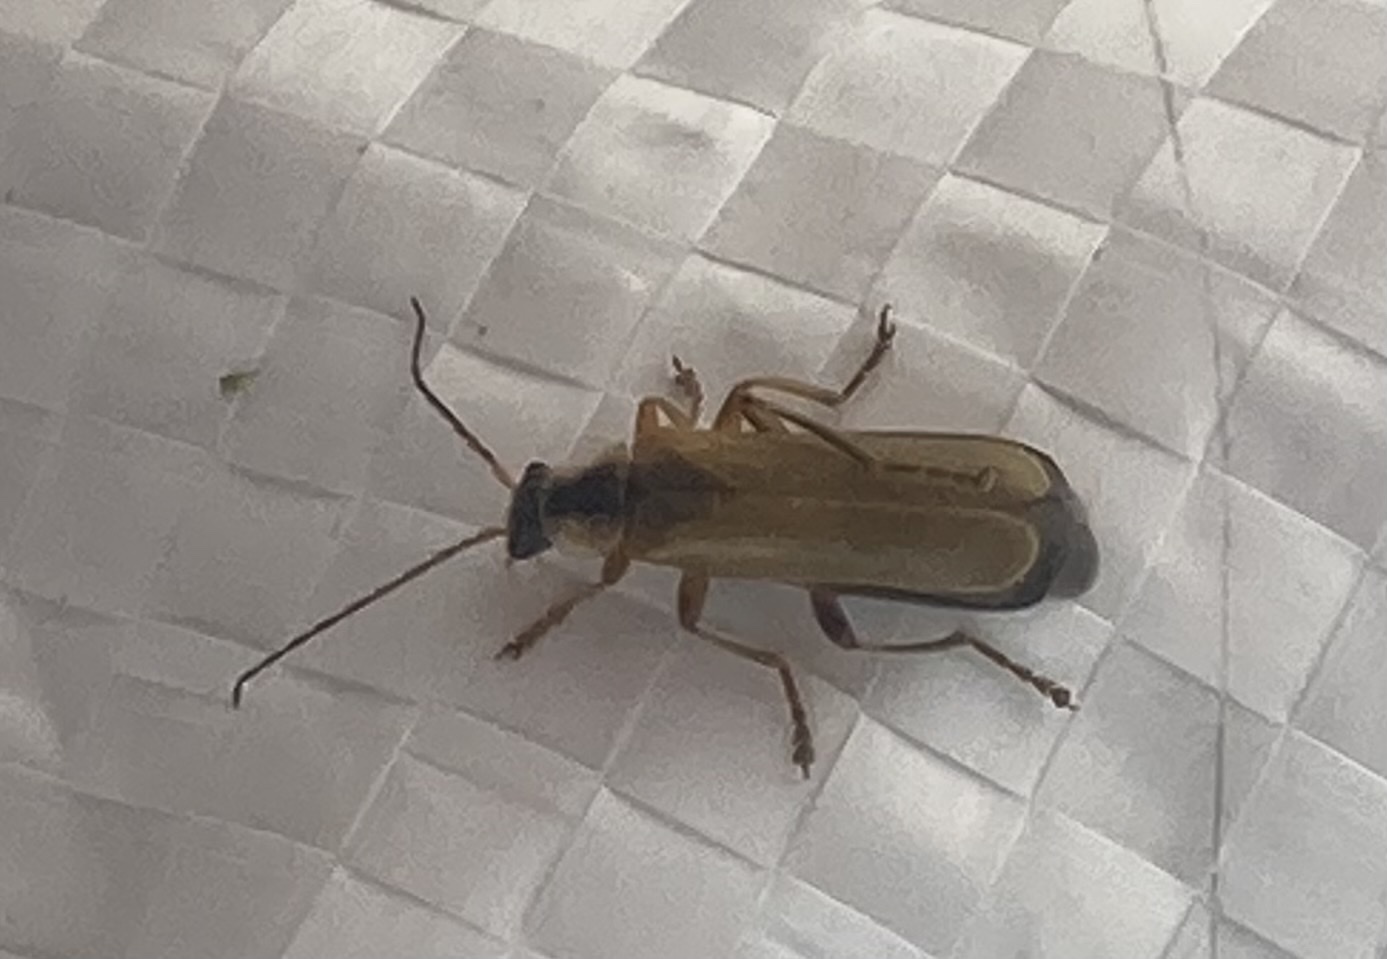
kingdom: Animalia
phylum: Arthropoda
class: Insecta
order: Coleoptera
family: Cantharidae
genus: Cantharis
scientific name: Cantharis decipiens
